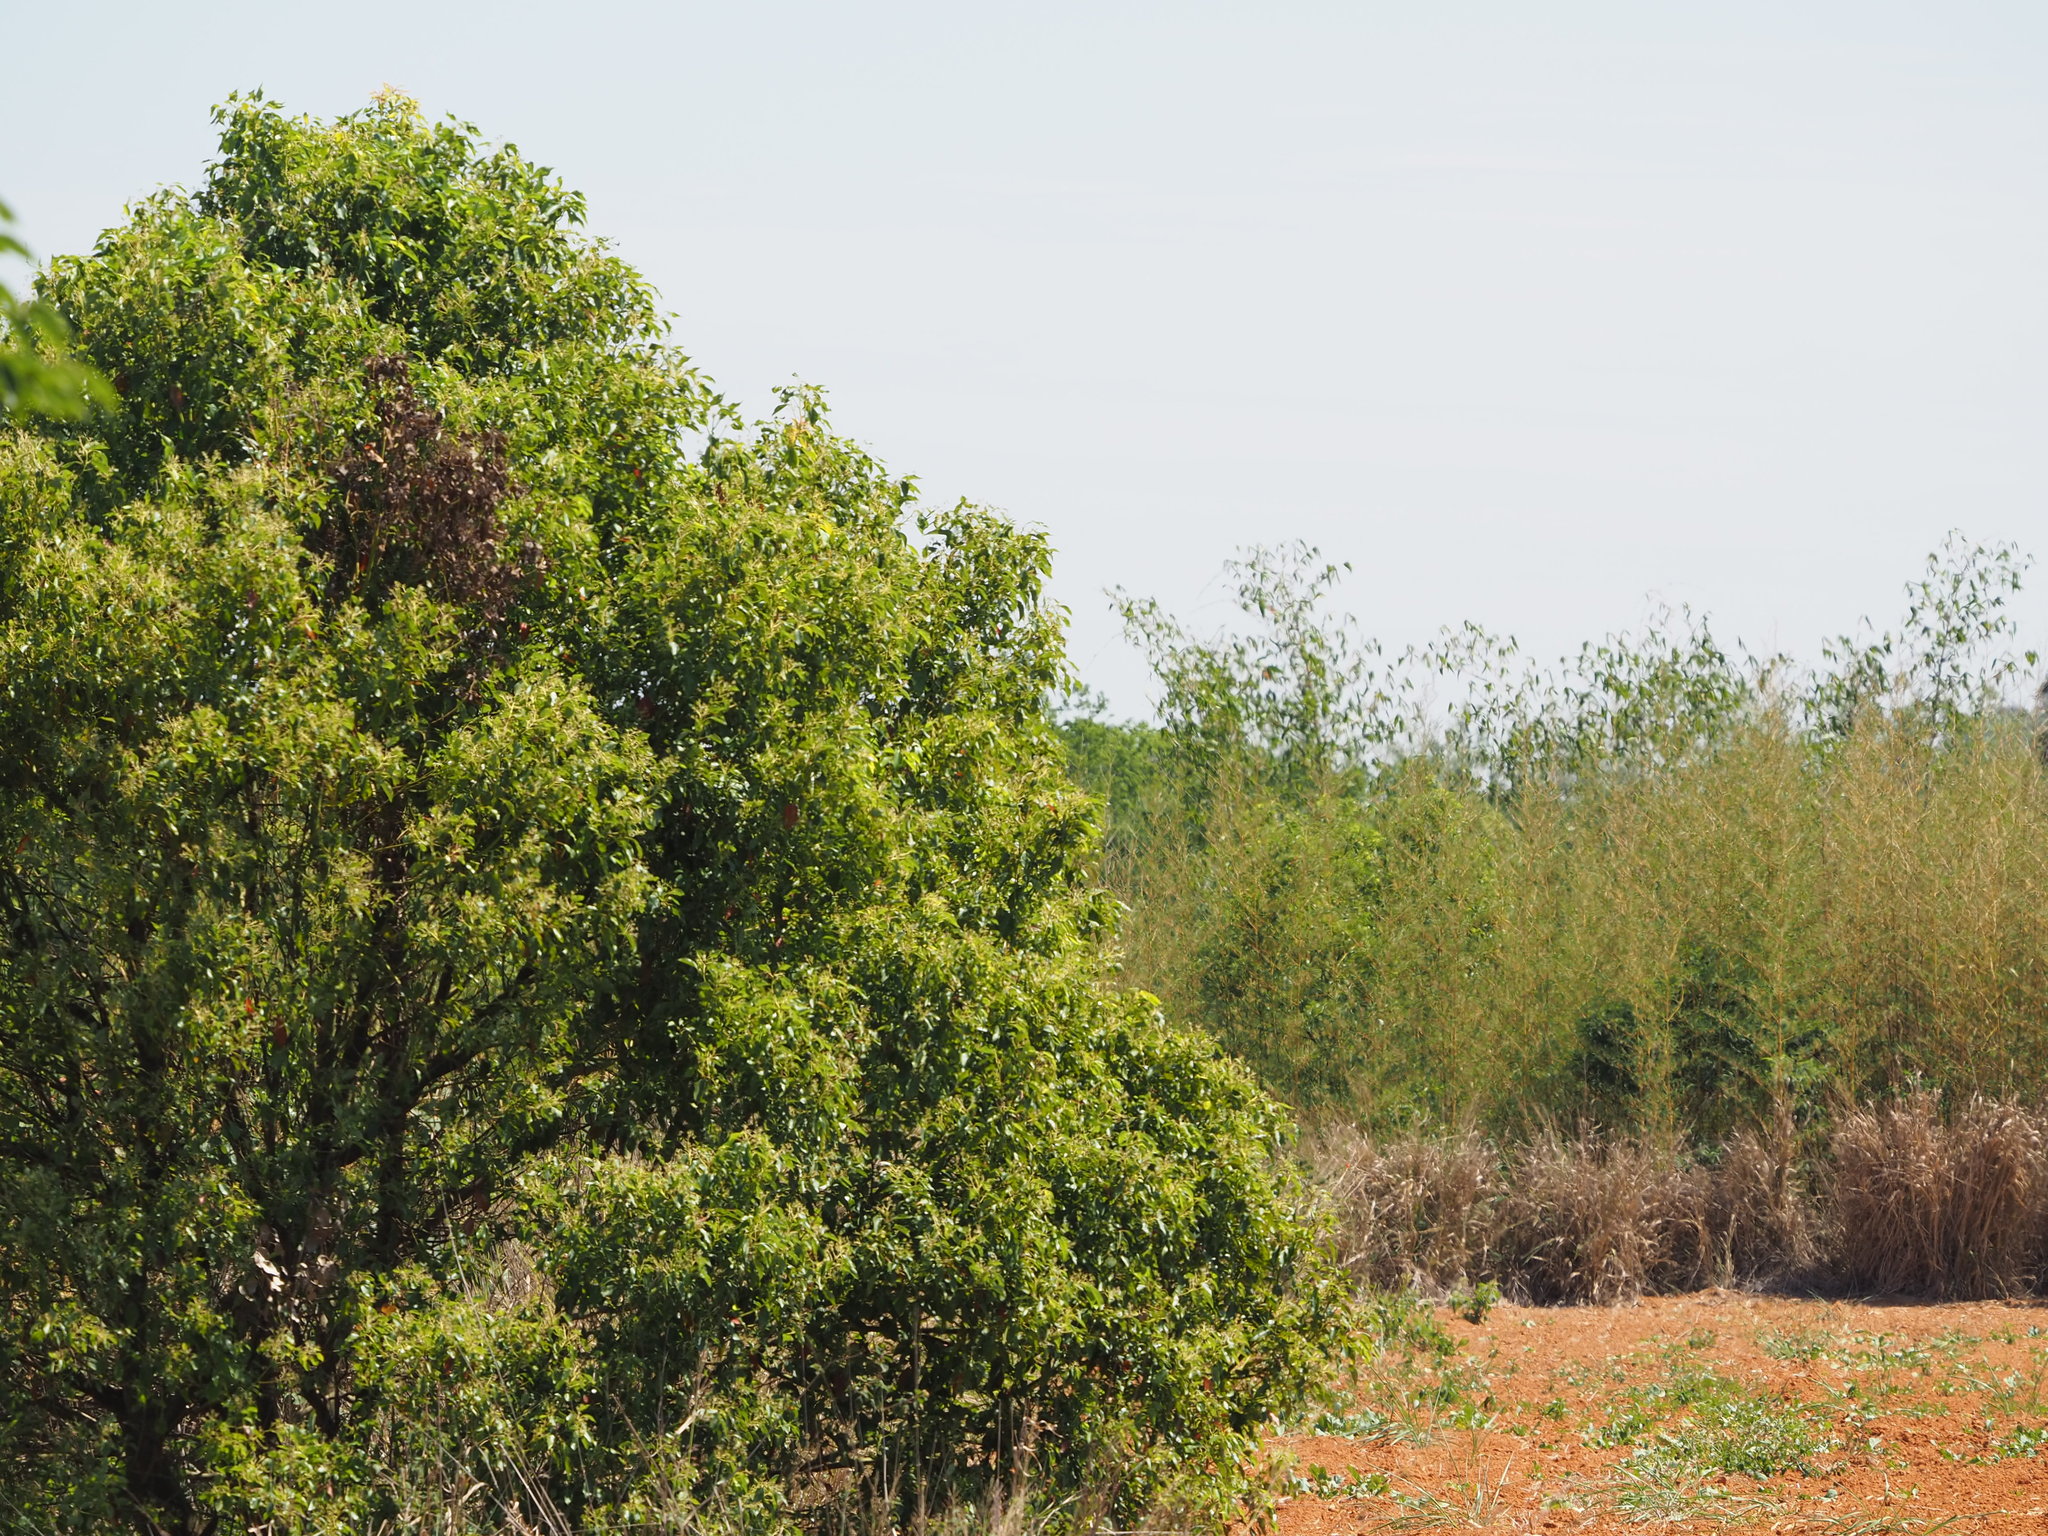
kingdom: Plantae
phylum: Tracheophyta
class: Magnoliopsida
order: Laurales
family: Lauraceae
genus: Cinnamomum
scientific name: Cinnamomum camphora
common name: Camphortree
